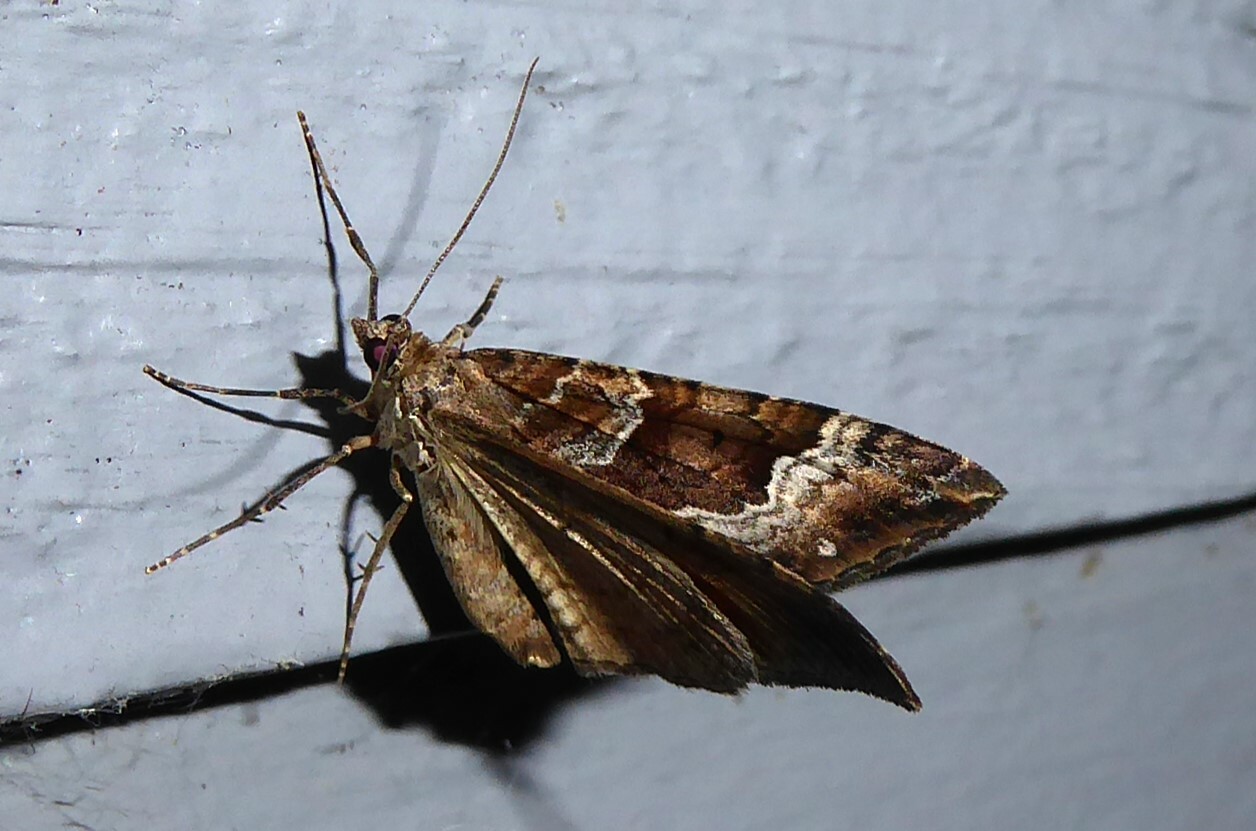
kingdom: Animalia
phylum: Arthropoda
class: Insecta
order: Lepidoptera
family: Geometridae
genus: Hydriomena
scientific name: Hydriomena deltoidata
